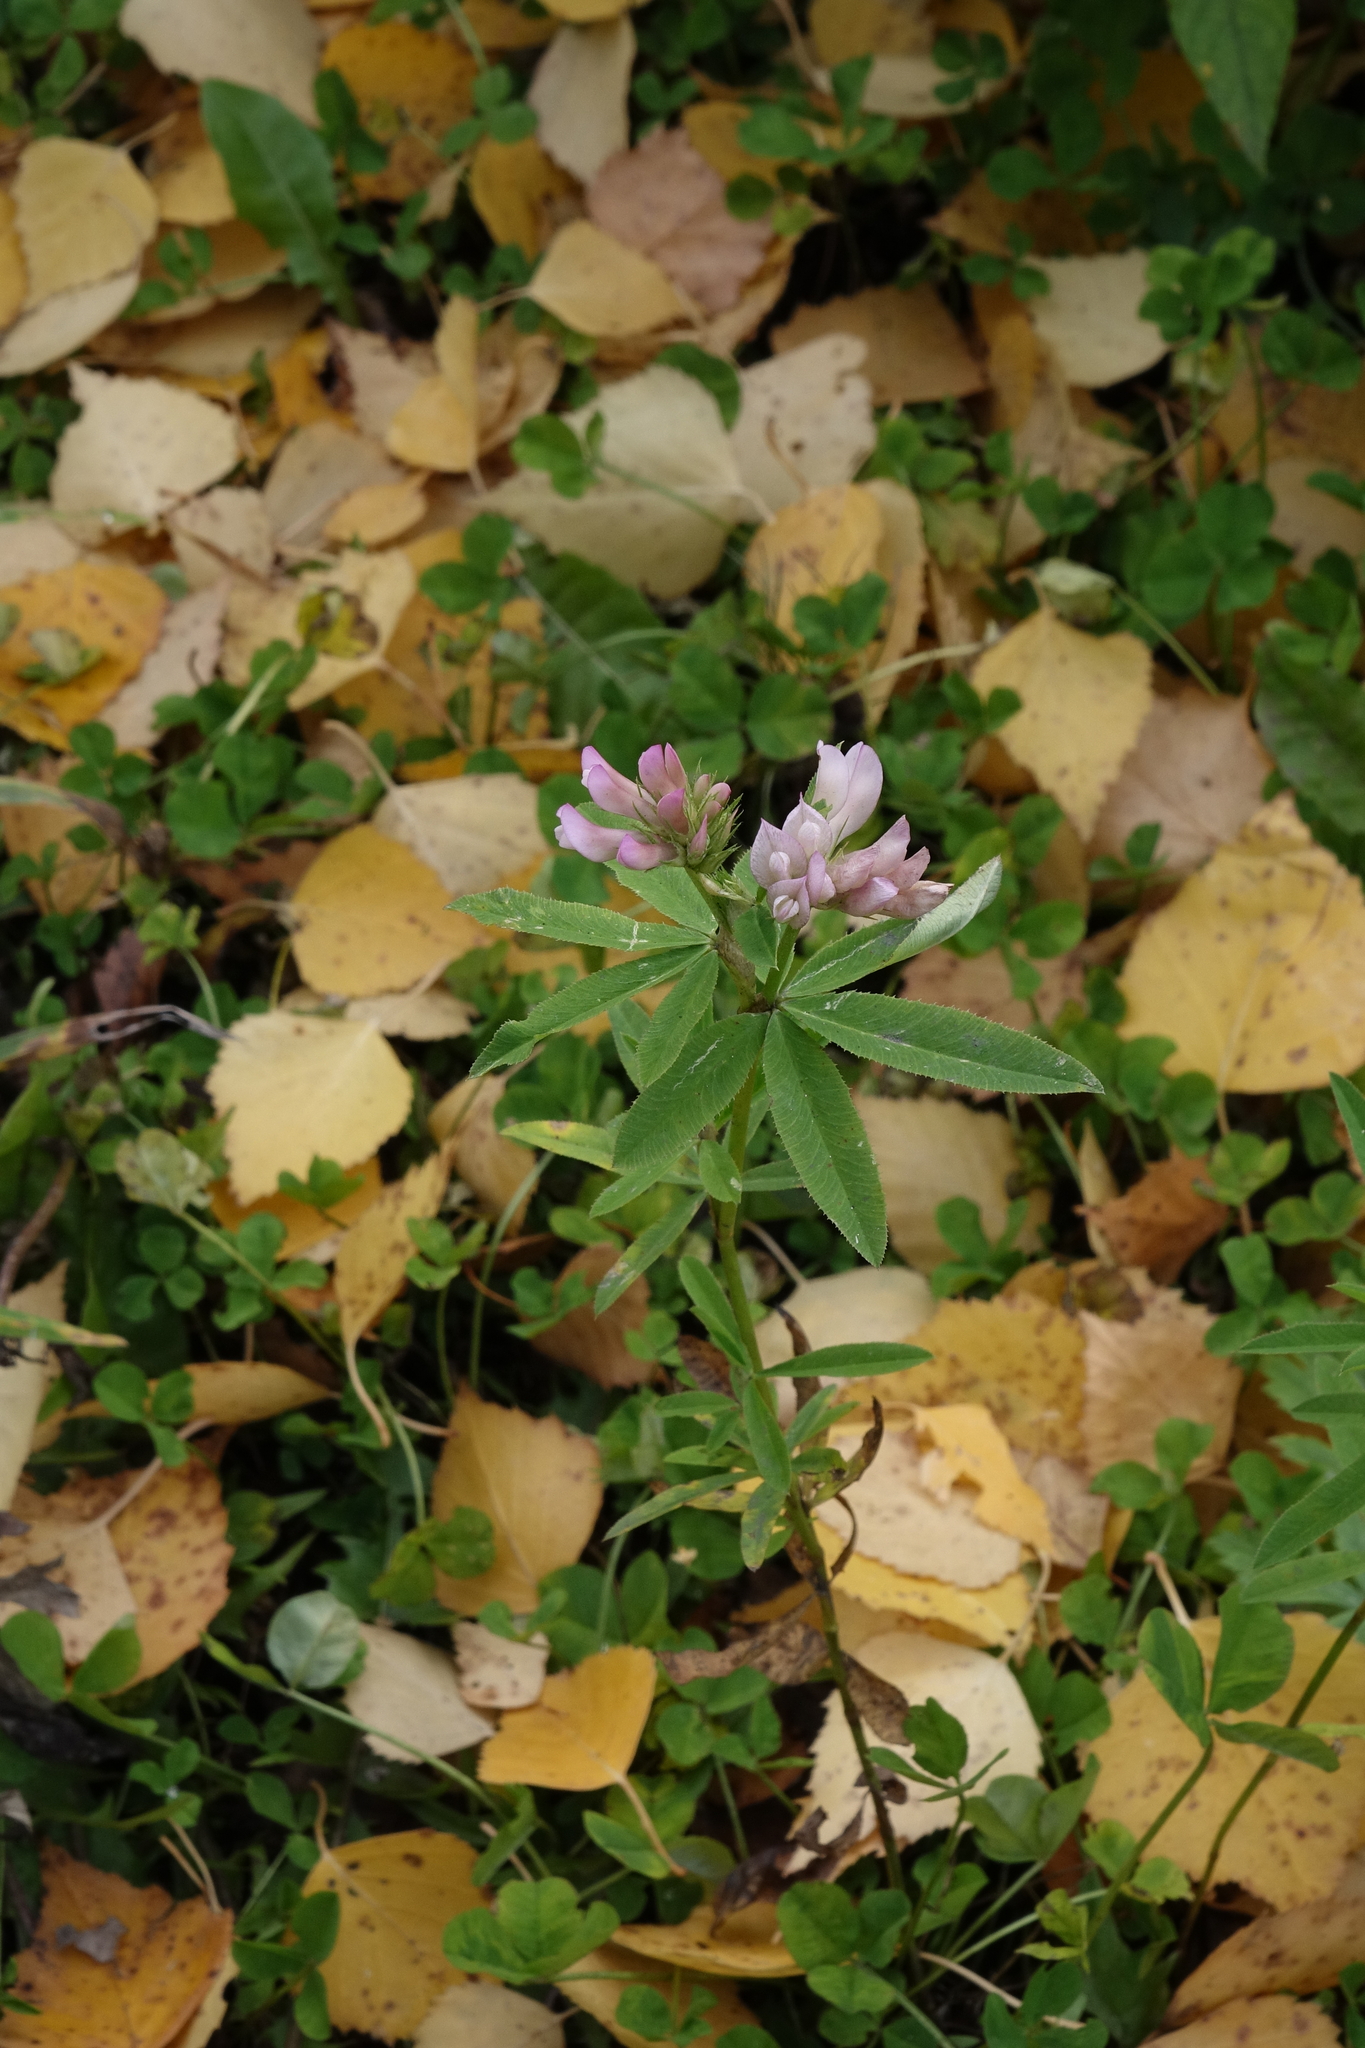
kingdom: Plantae
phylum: Tracheophyta
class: Magnoliopsida
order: Fabales
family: Fabaceae
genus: Trifolium
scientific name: Trifolium lupinaster
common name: Lupine clover
